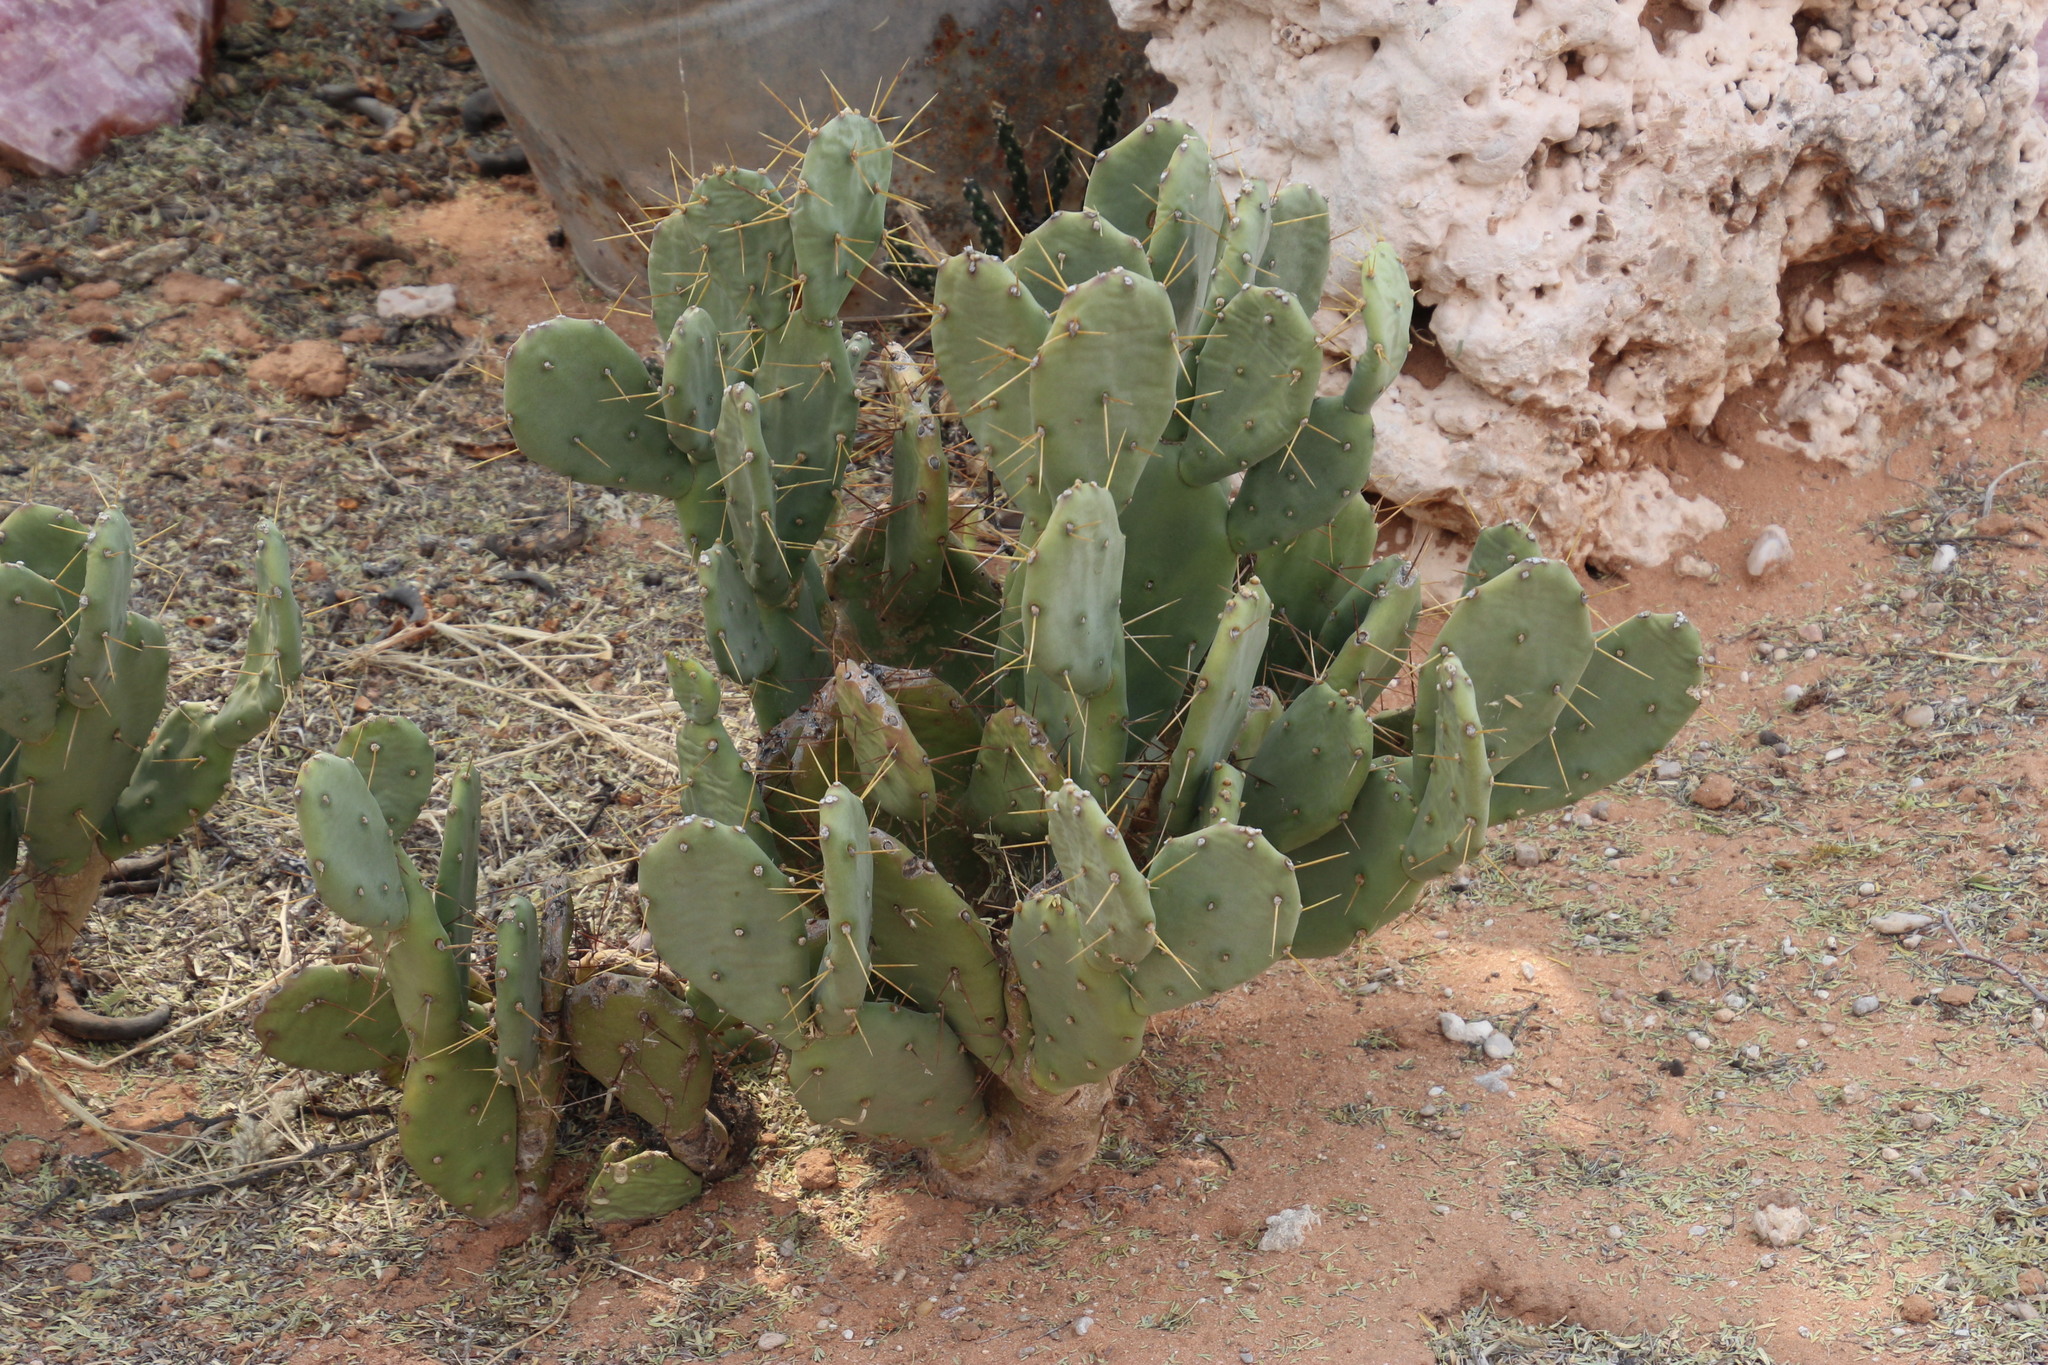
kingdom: Plantae
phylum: Tracheophyta
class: Magnoliopsida
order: Caryophyllales
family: Cactaceae
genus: Opuntia
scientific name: Opuntia stricta
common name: Erect pricklypear
